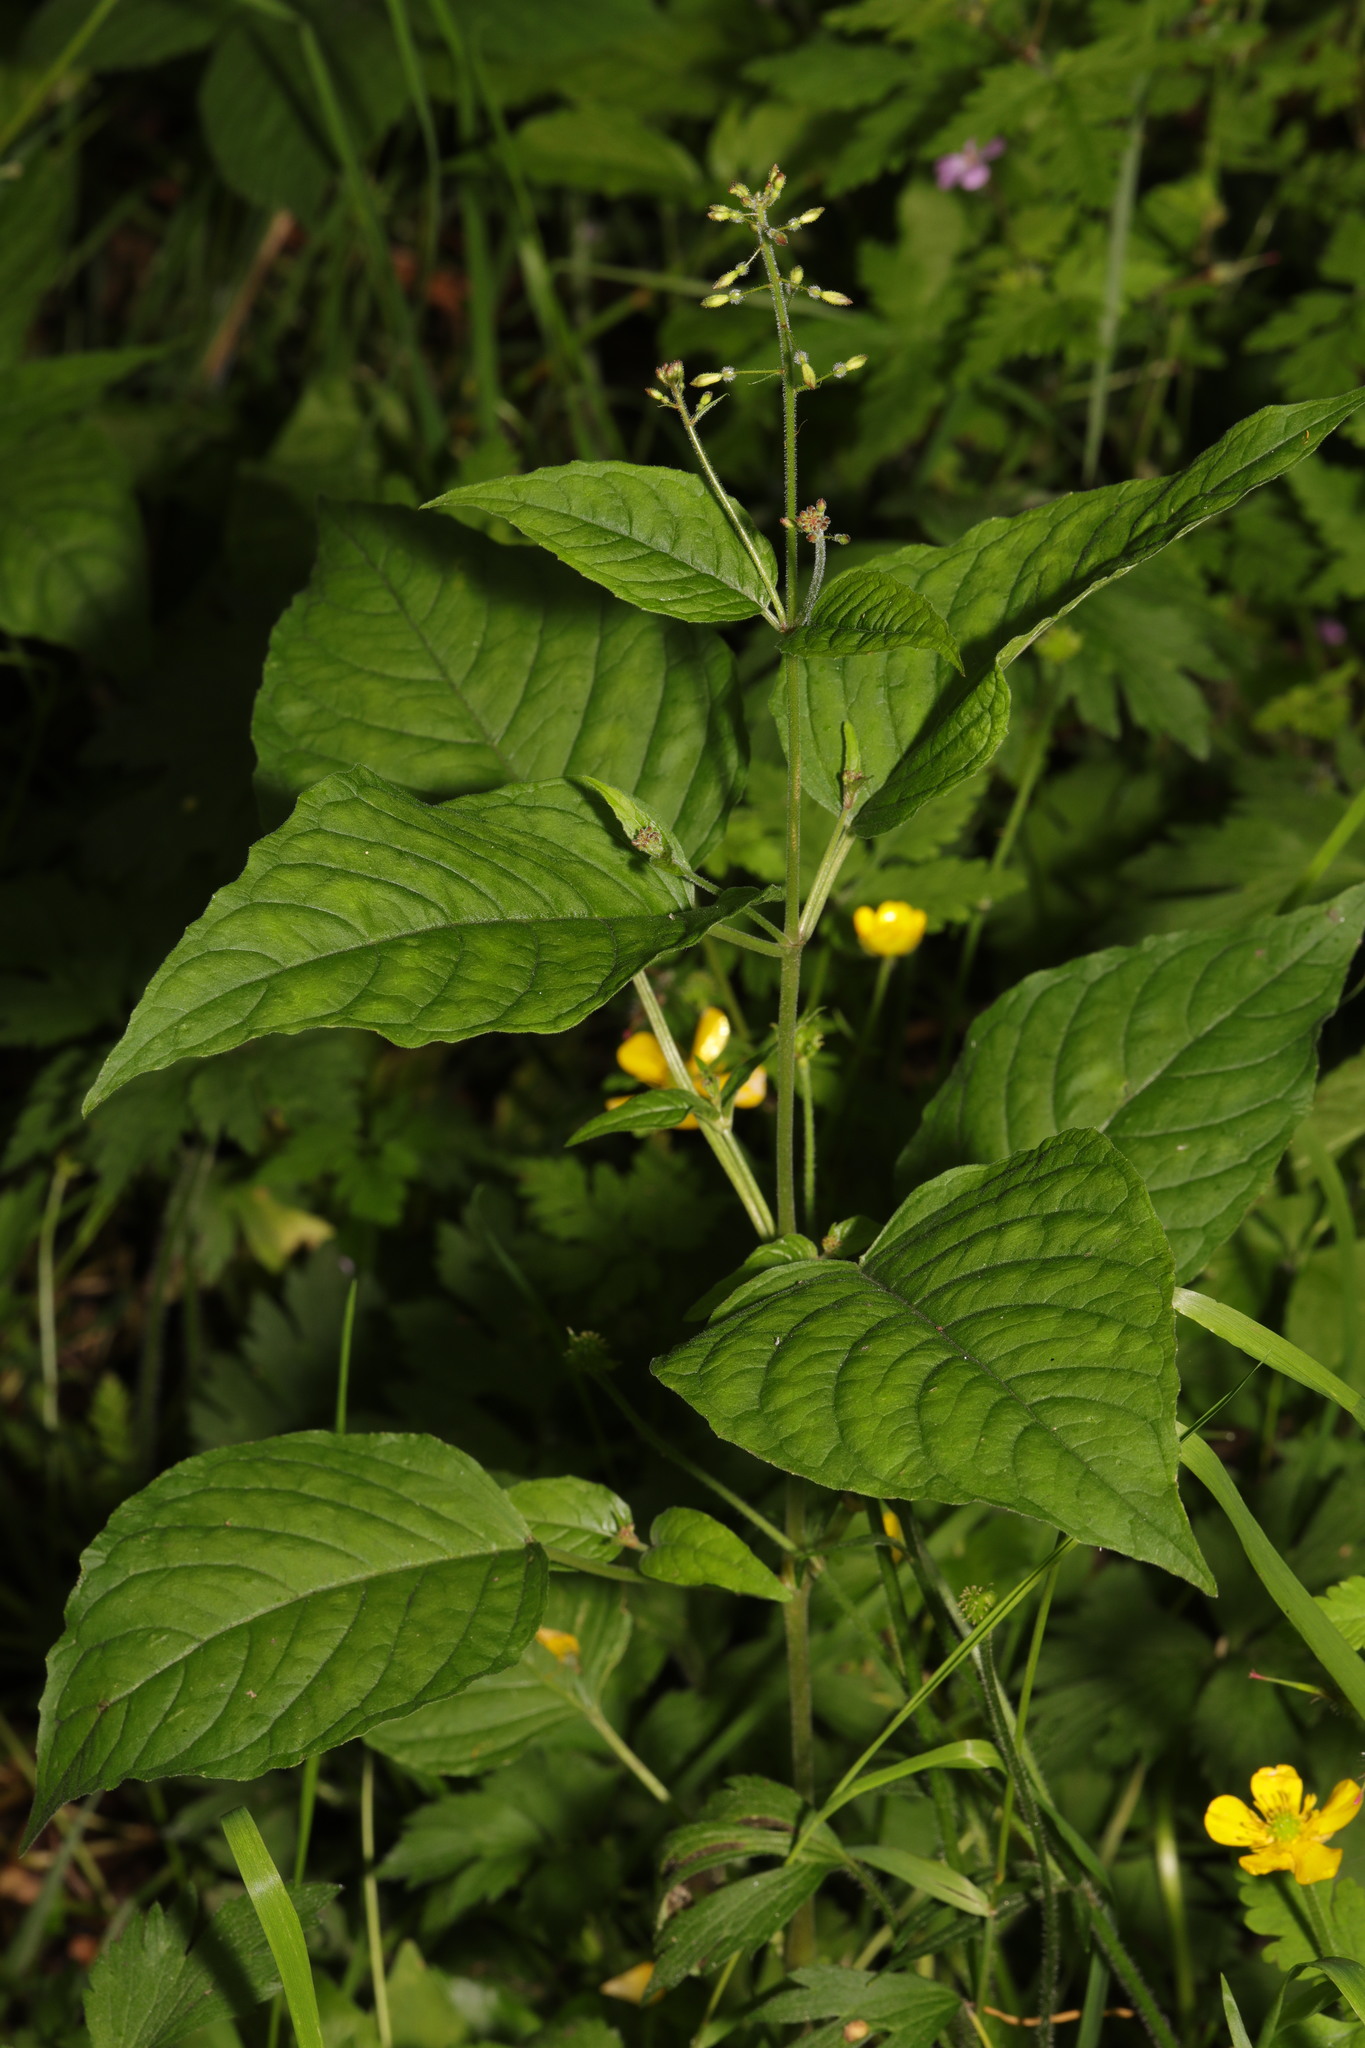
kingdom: Plantae
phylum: Tracheophyta
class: Magnoliopsida
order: Myrtales
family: Onagraceae
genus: Circaea
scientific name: Circaea lutetiana
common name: Enchanter's-nightshade
